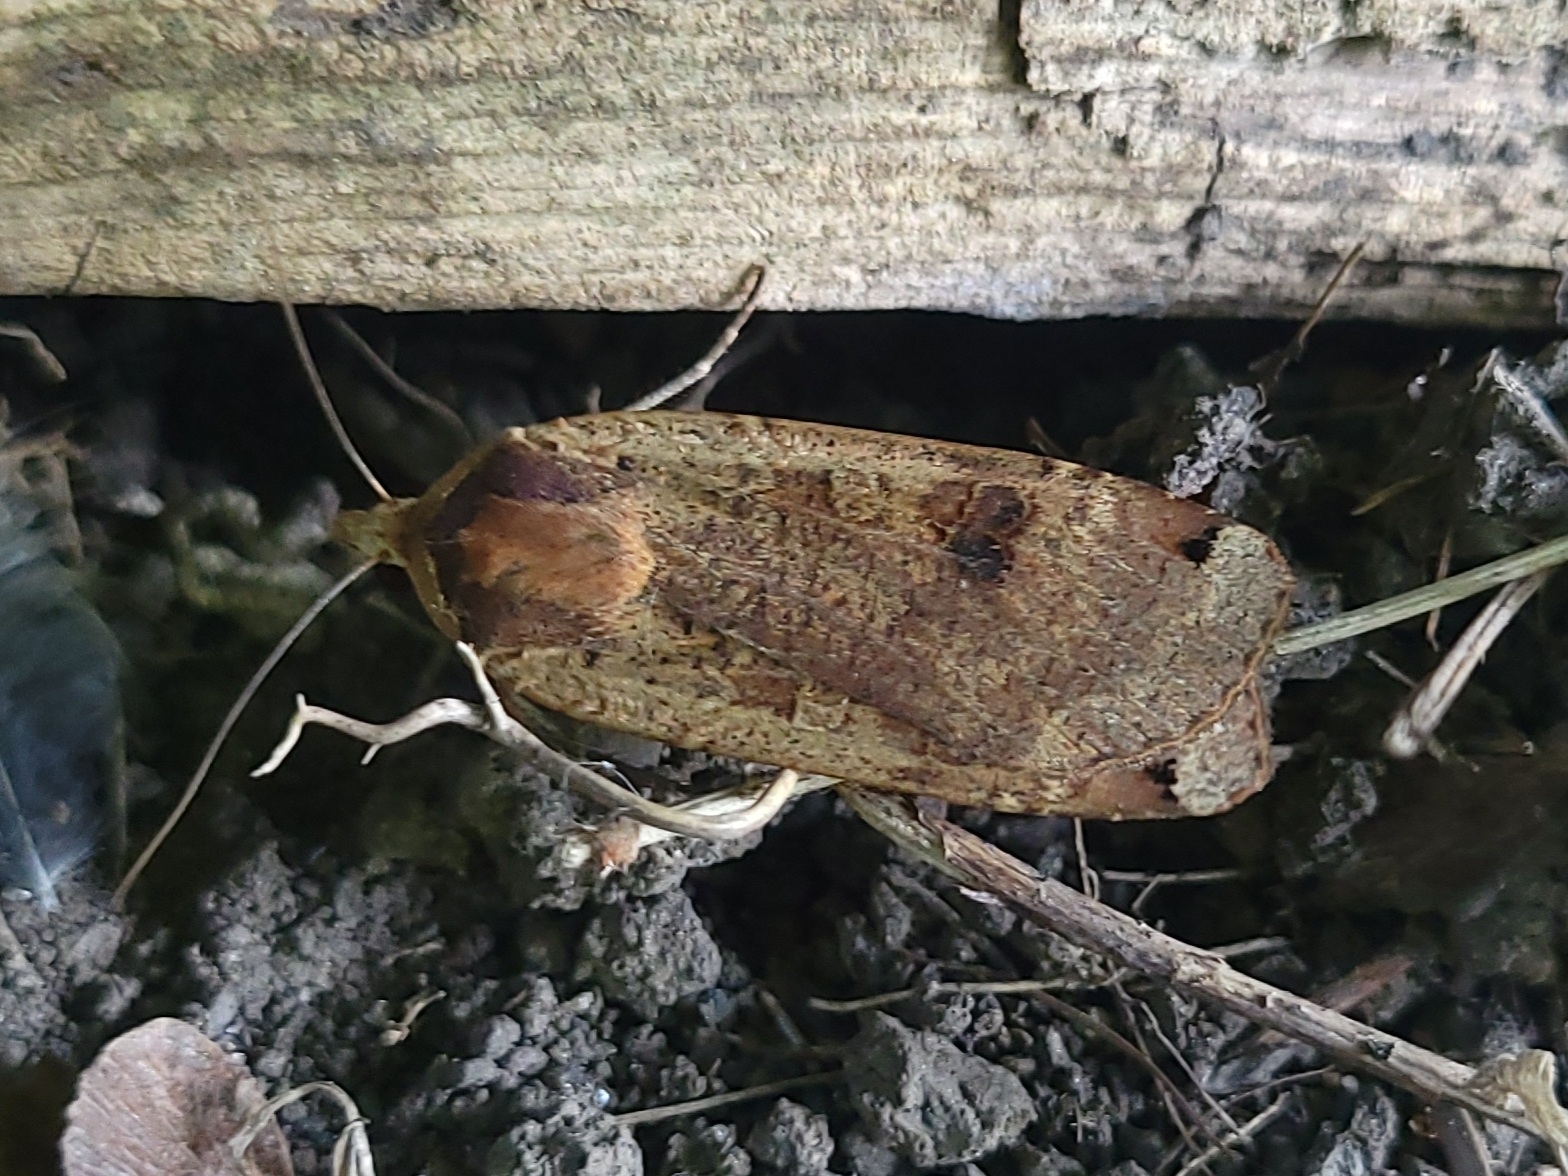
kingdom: Animalia
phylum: Arthropoda
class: Insecta
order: Lepidoptera
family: Noctuidae
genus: Noctua
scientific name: Noctua pronuba
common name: Large yellow underwing
